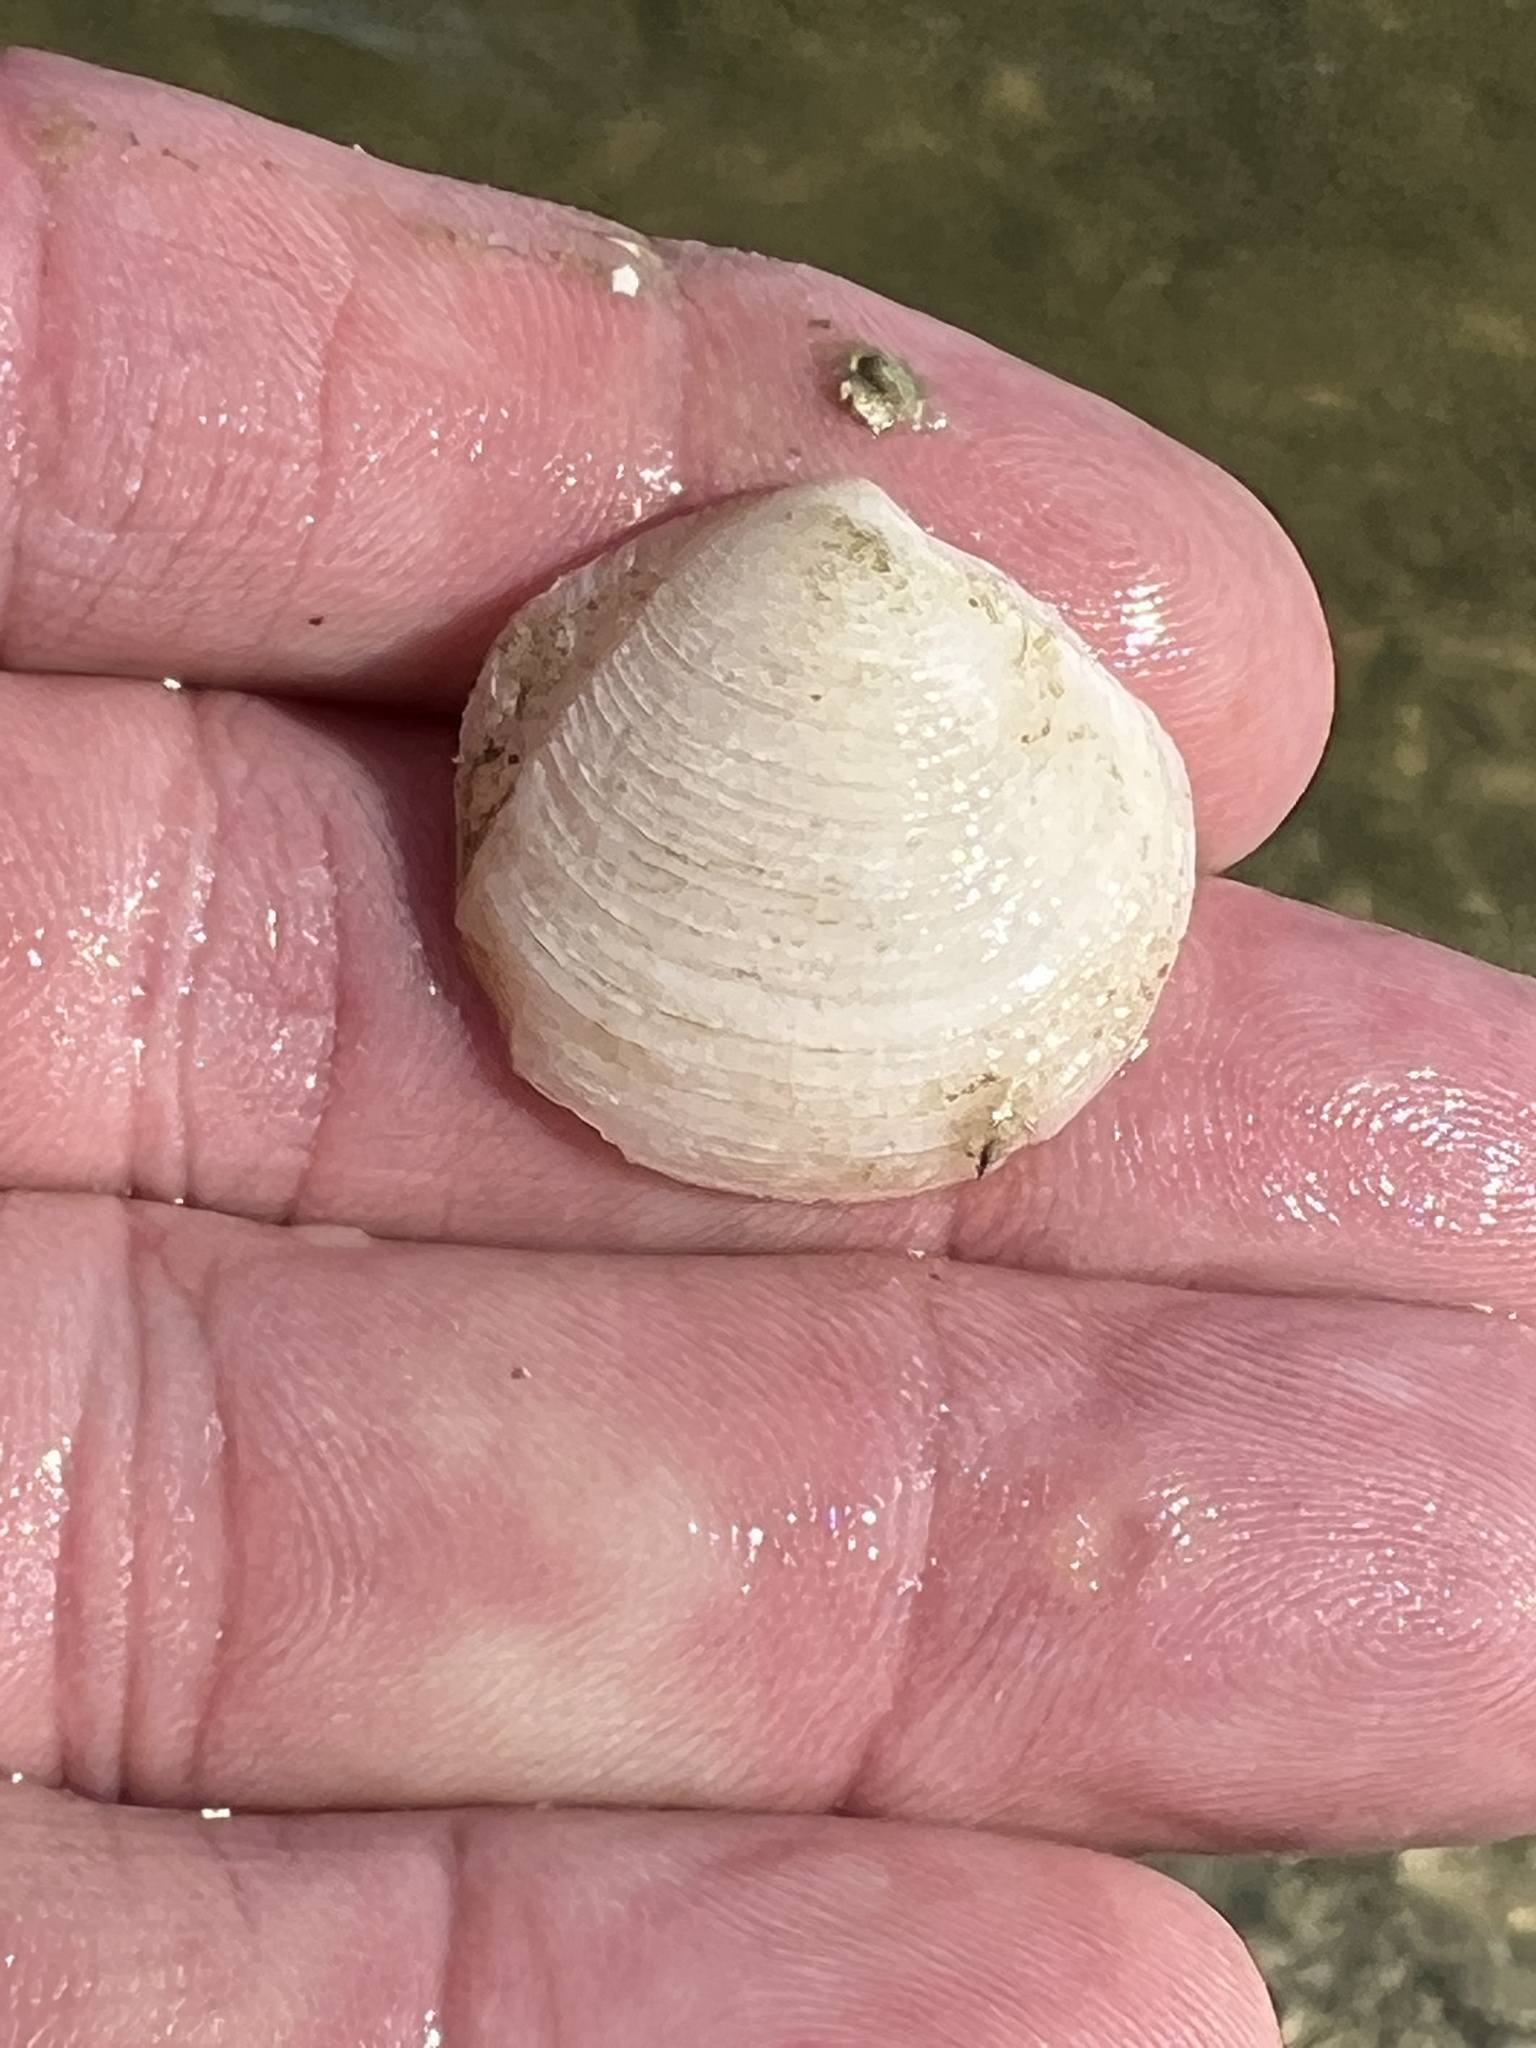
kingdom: Animalia
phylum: Mollusca
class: Bivalvia
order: Lucinida
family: Lucinidae
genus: Lucina
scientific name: Lucina pensylvanica
